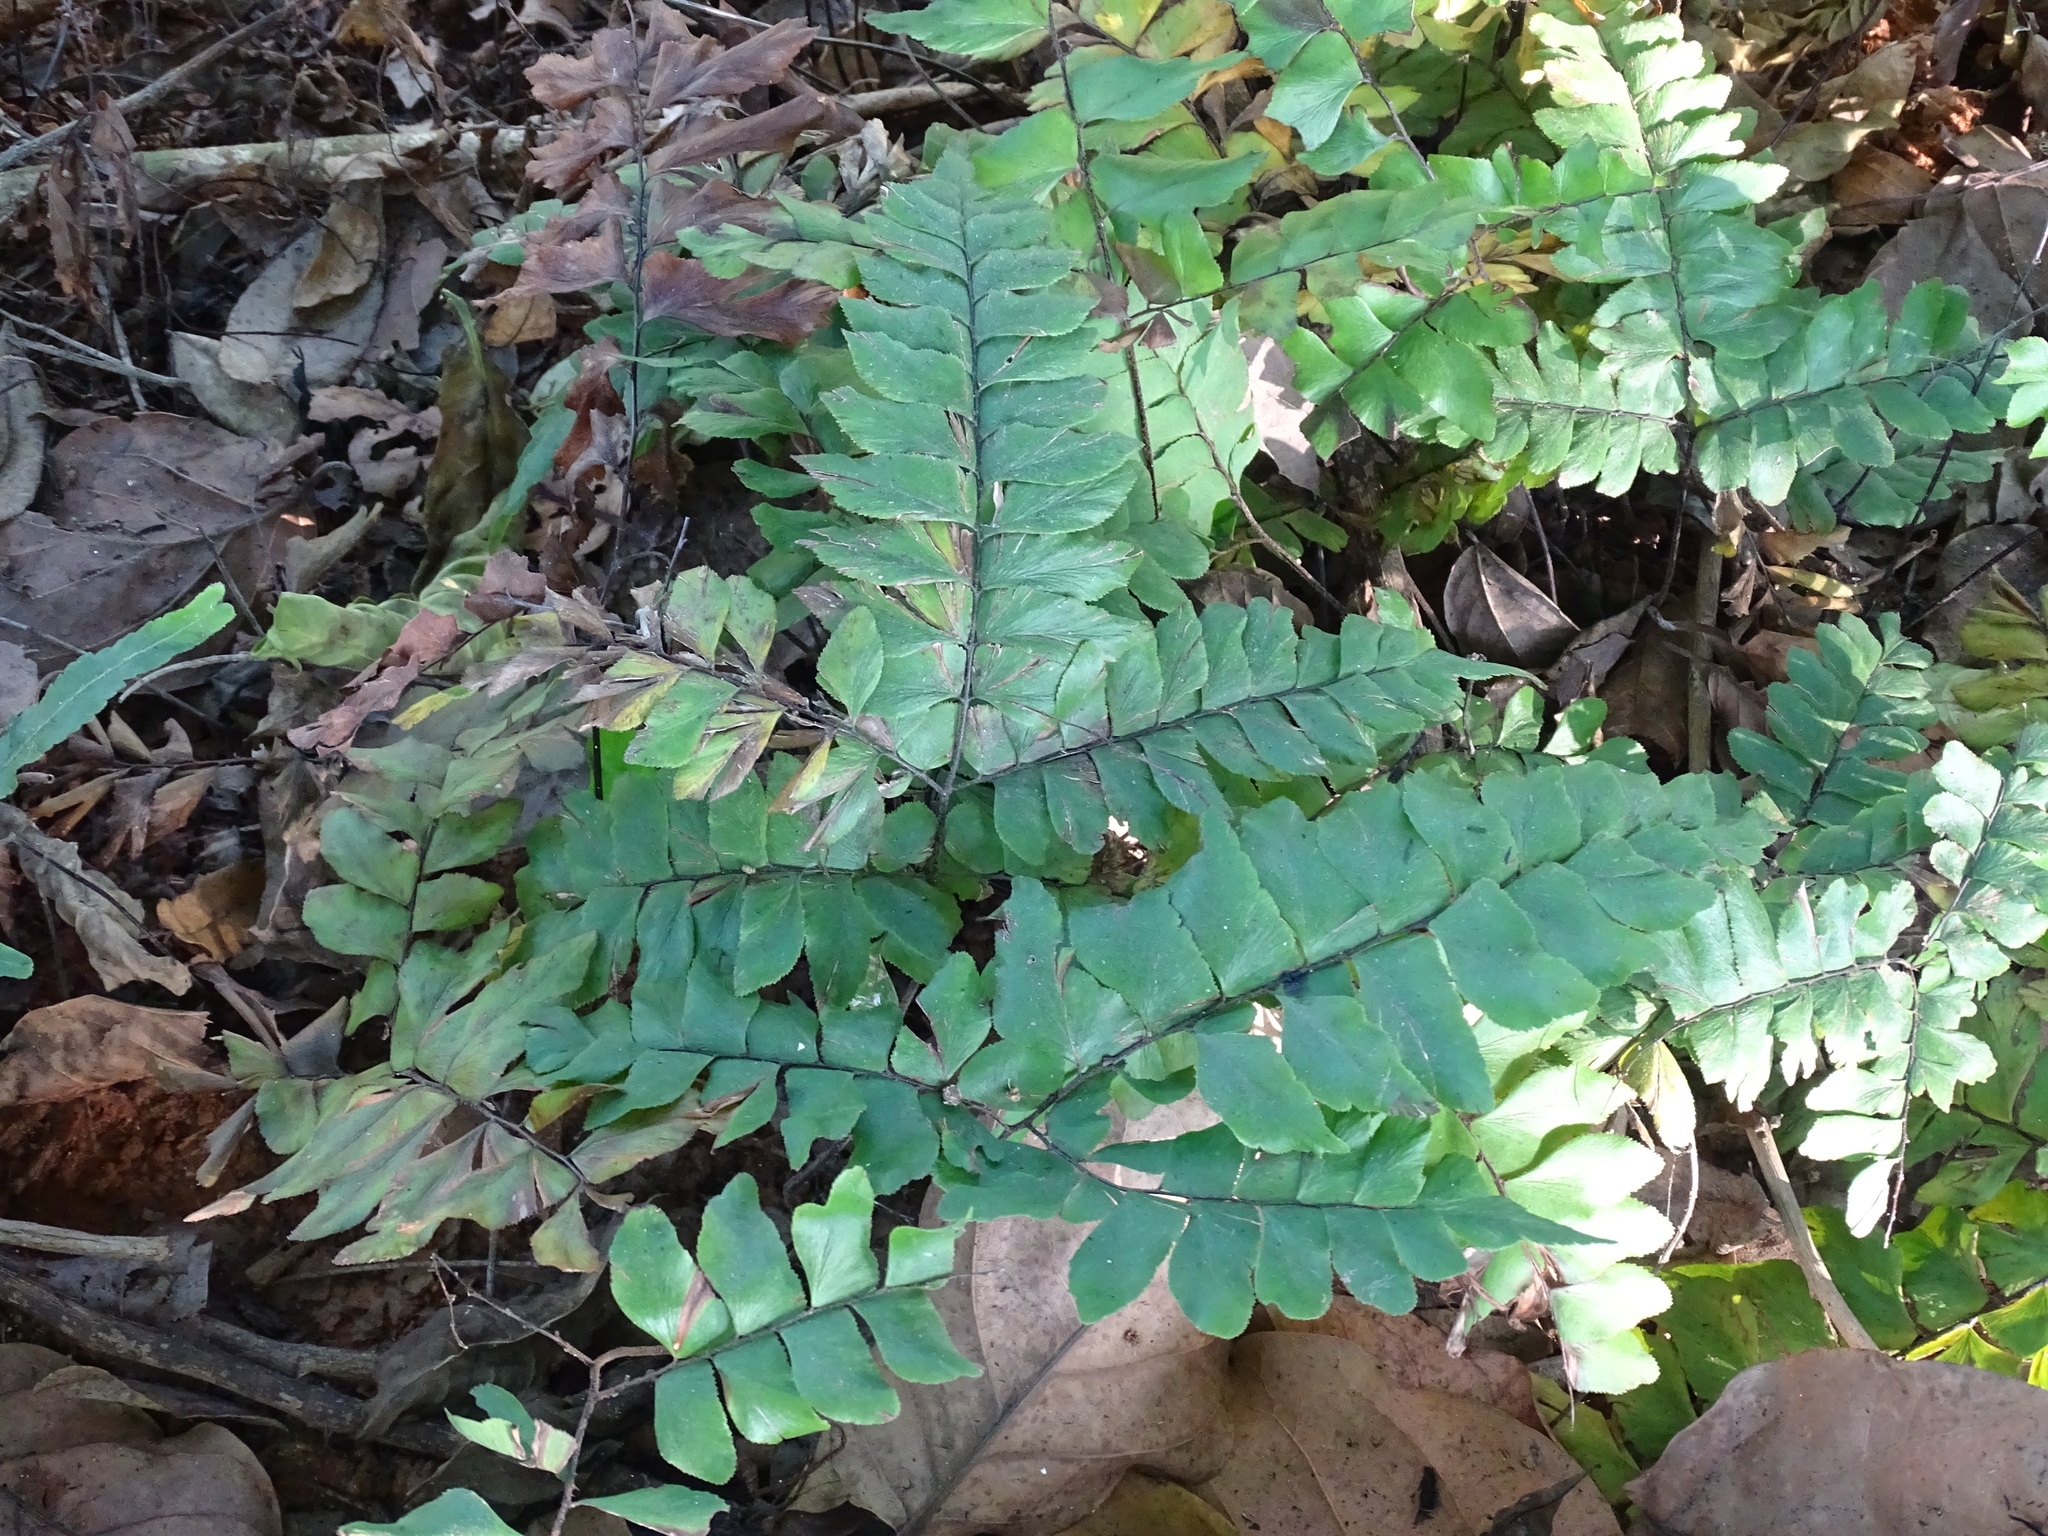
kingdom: Plantae
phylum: Tracheophyta
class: Polypodiopsida
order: Polypodiales
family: Pteridaceae
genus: Adiantum
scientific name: Adiantum mcvaughii
